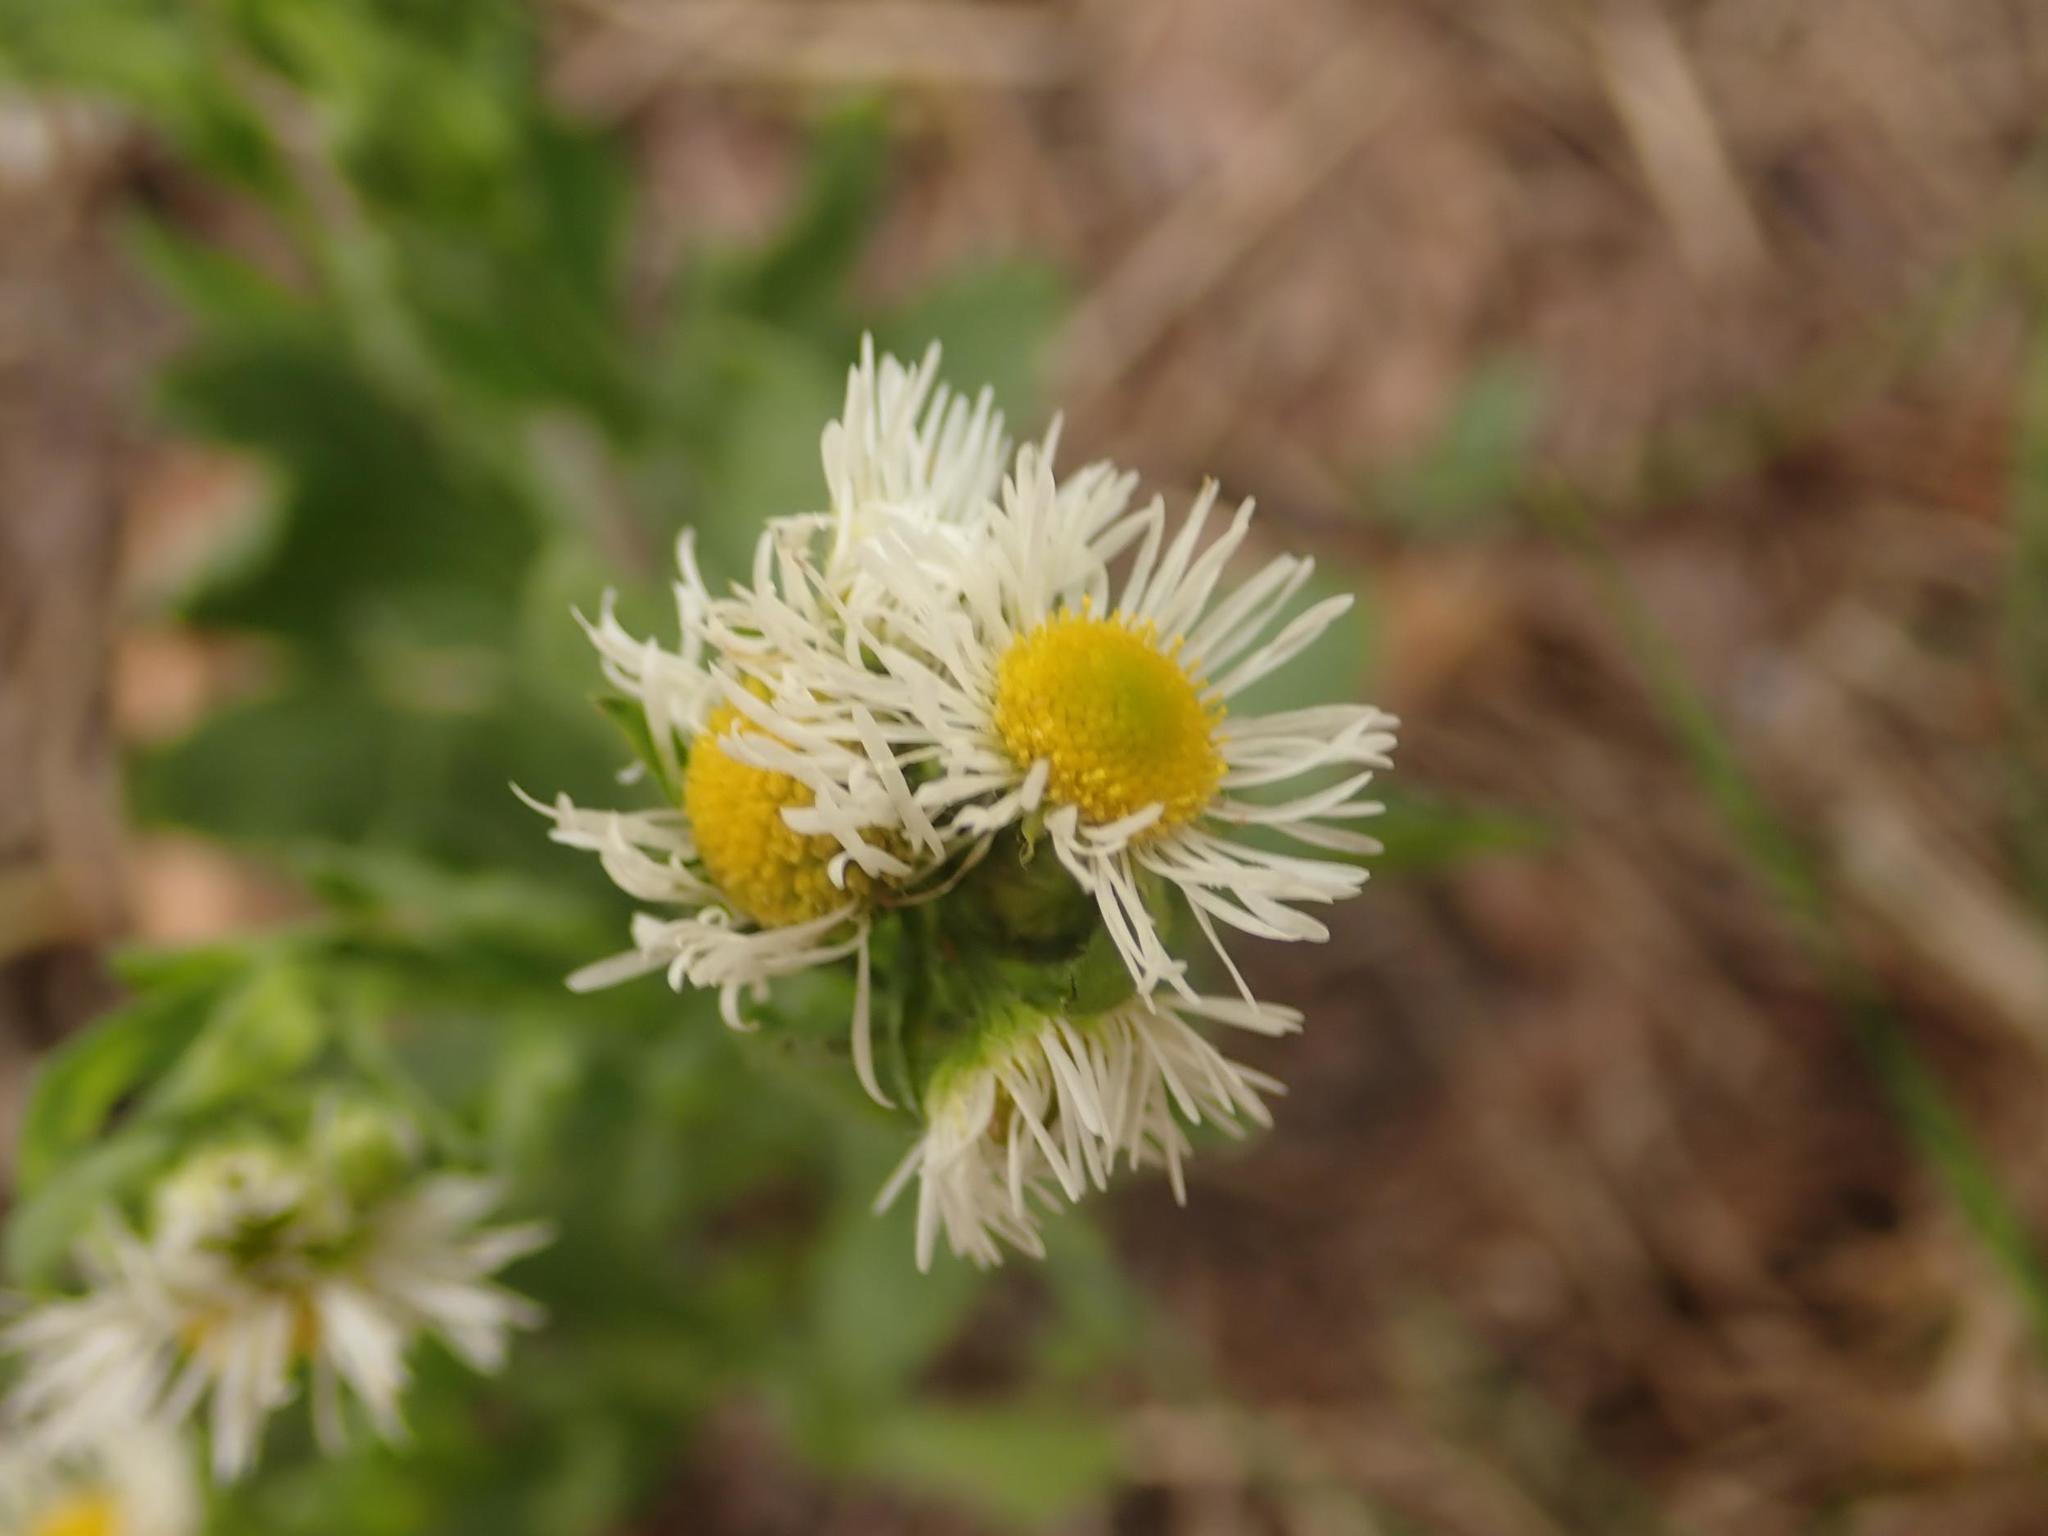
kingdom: Plantae
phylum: Tracheophyta
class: Magnoliopsida
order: Asterales
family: Asteraceae
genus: Erigeron
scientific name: Erigeron annuus
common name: Tall fleabane
